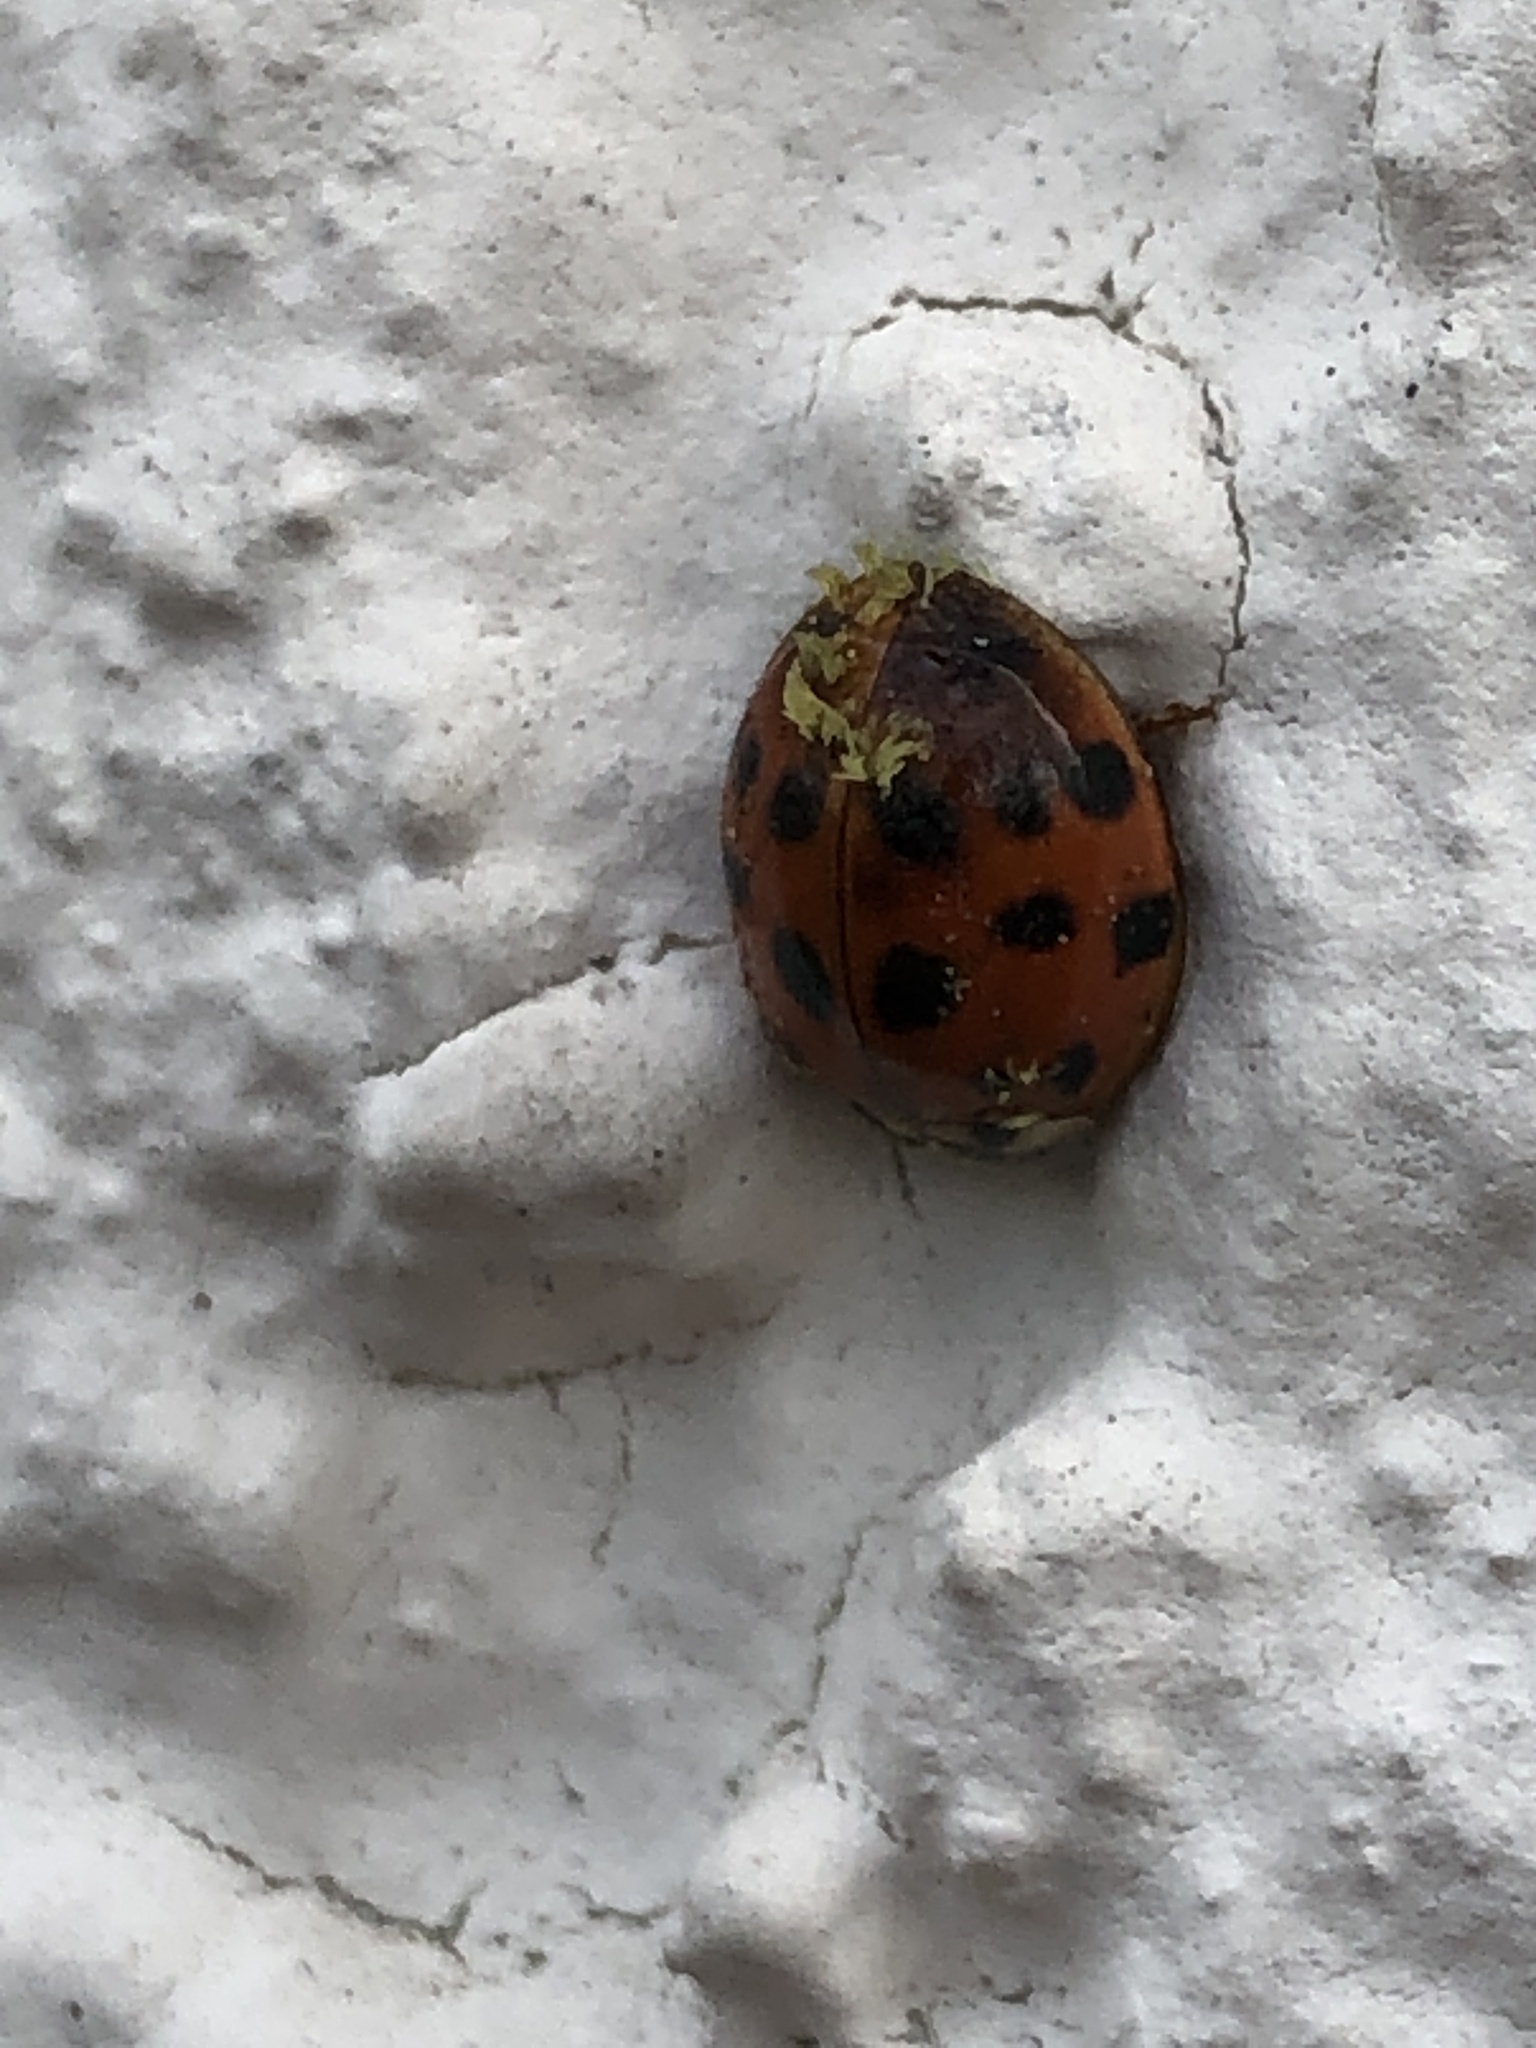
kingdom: Fungi
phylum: Ascomycota
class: Laboulbeniomycetes
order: Laboulbeniales
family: Laboulbeniaceae
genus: Hesperomyces
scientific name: Hesperomyces harmoniae
